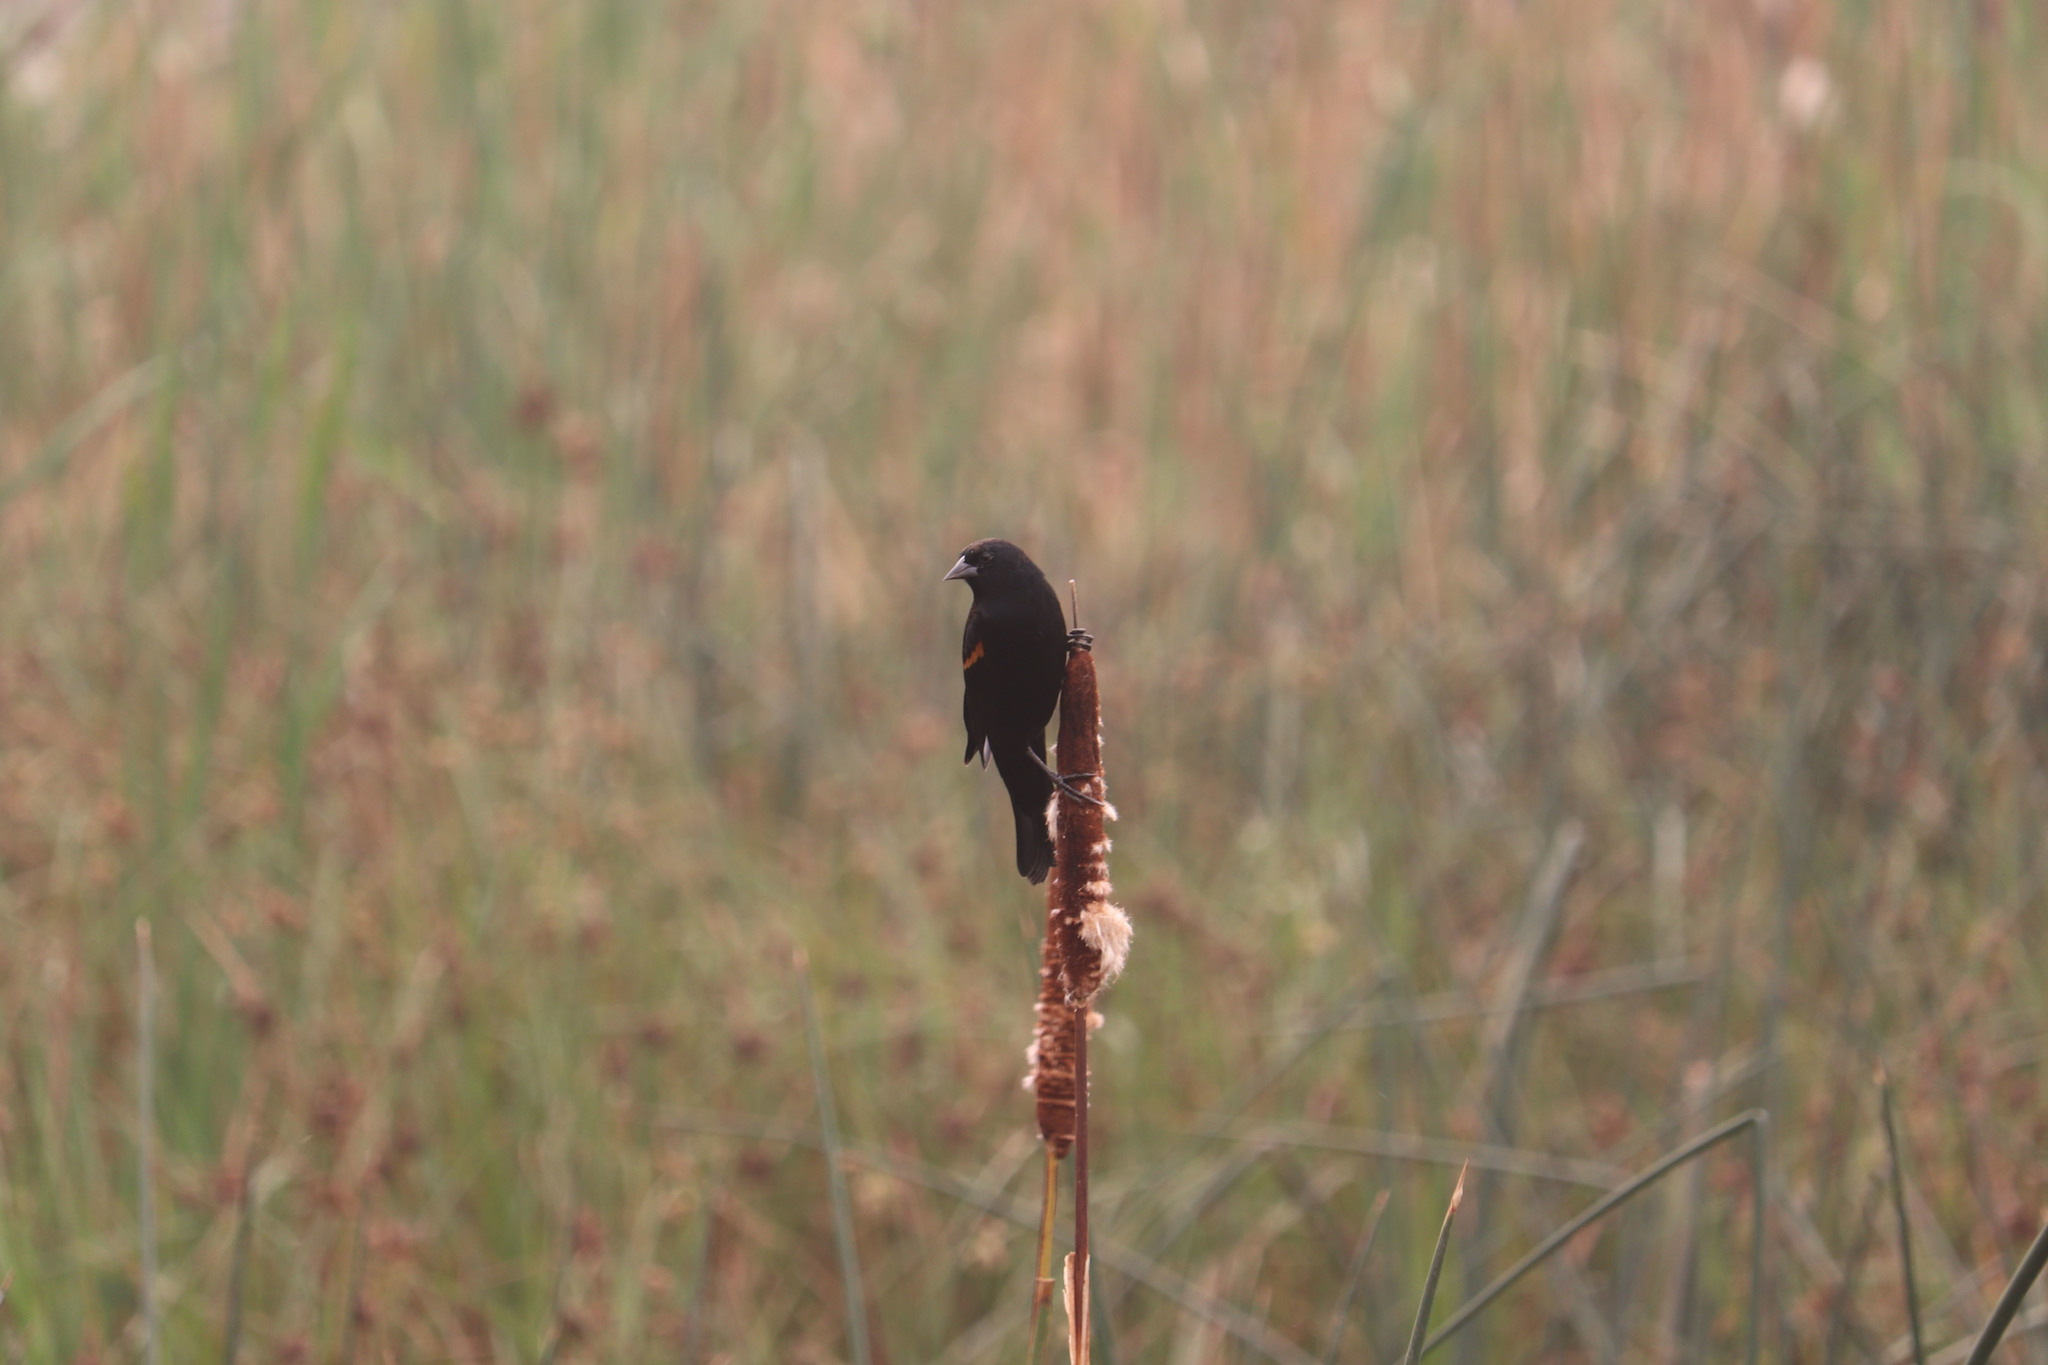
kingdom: Animalia
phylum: Chordata
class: Aves
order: Passeriformes
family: Icteridae
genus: Agelaius
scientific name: Agelaius phoeniceus
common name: Red-winged blackbird
